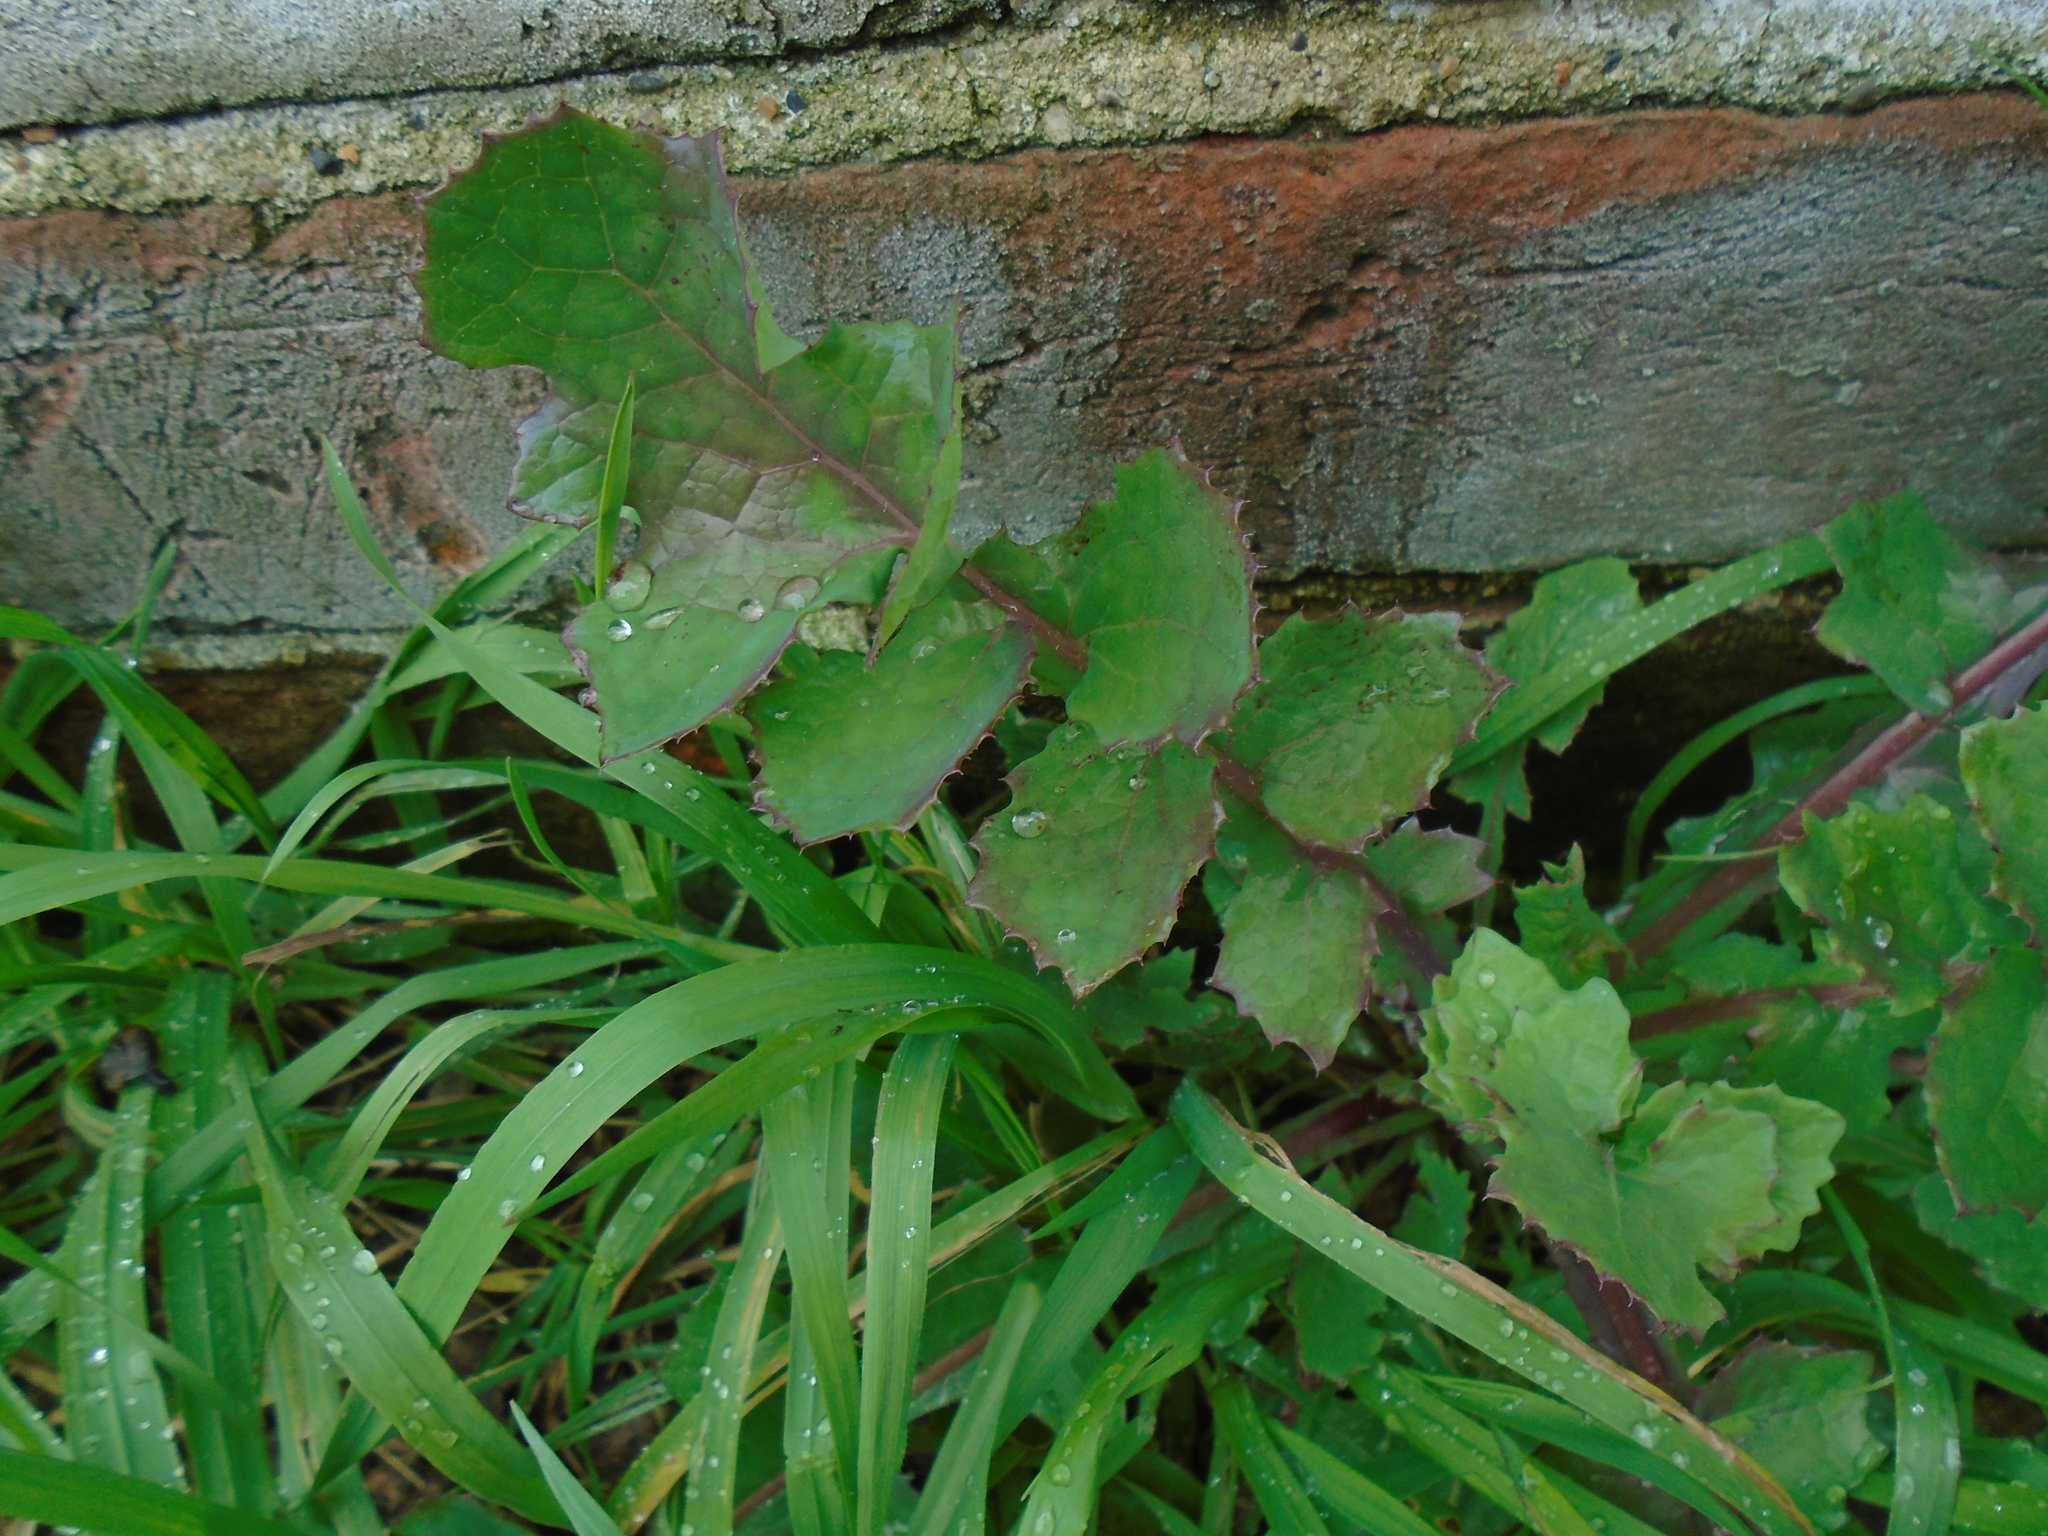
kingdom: Plantae
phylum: Tracheophyta
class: Magnoliopsida
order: Asterales
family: Asteraceae
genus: Sonchus
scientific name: Sonchus oleraceus
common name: Common sowthistle
